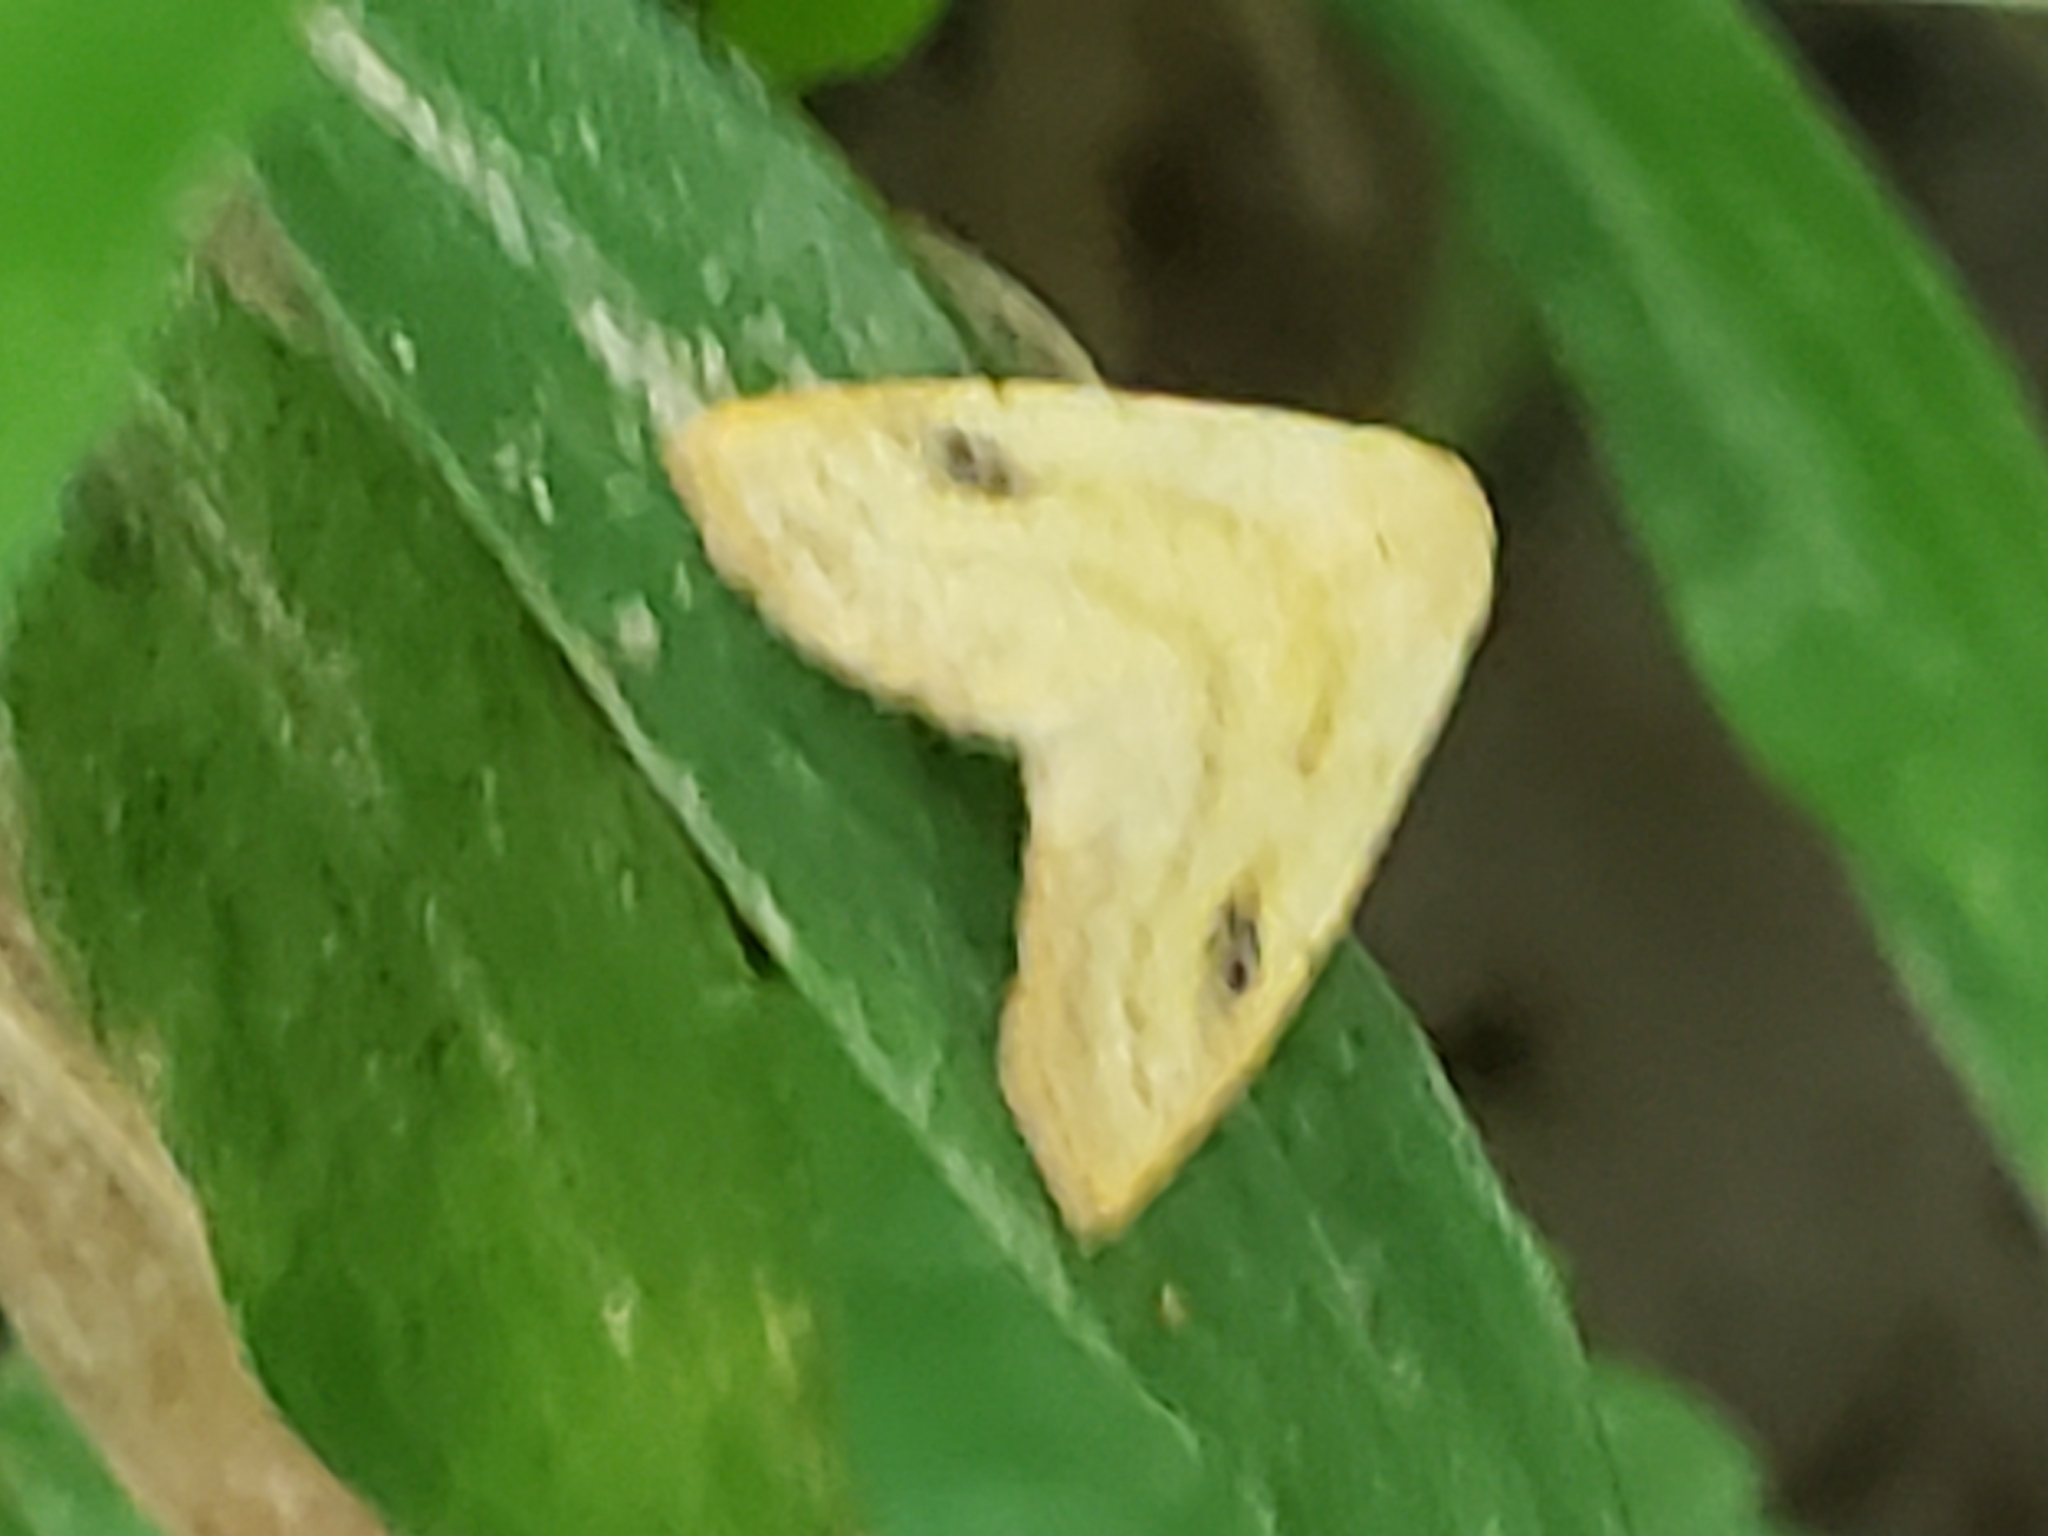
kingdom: Animalia
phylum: Arthropoda
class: Insecta
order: Lepidoptera
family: Erebidae
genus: Rivula
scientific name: Rivula propinqualis
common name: Spotted grass moth
